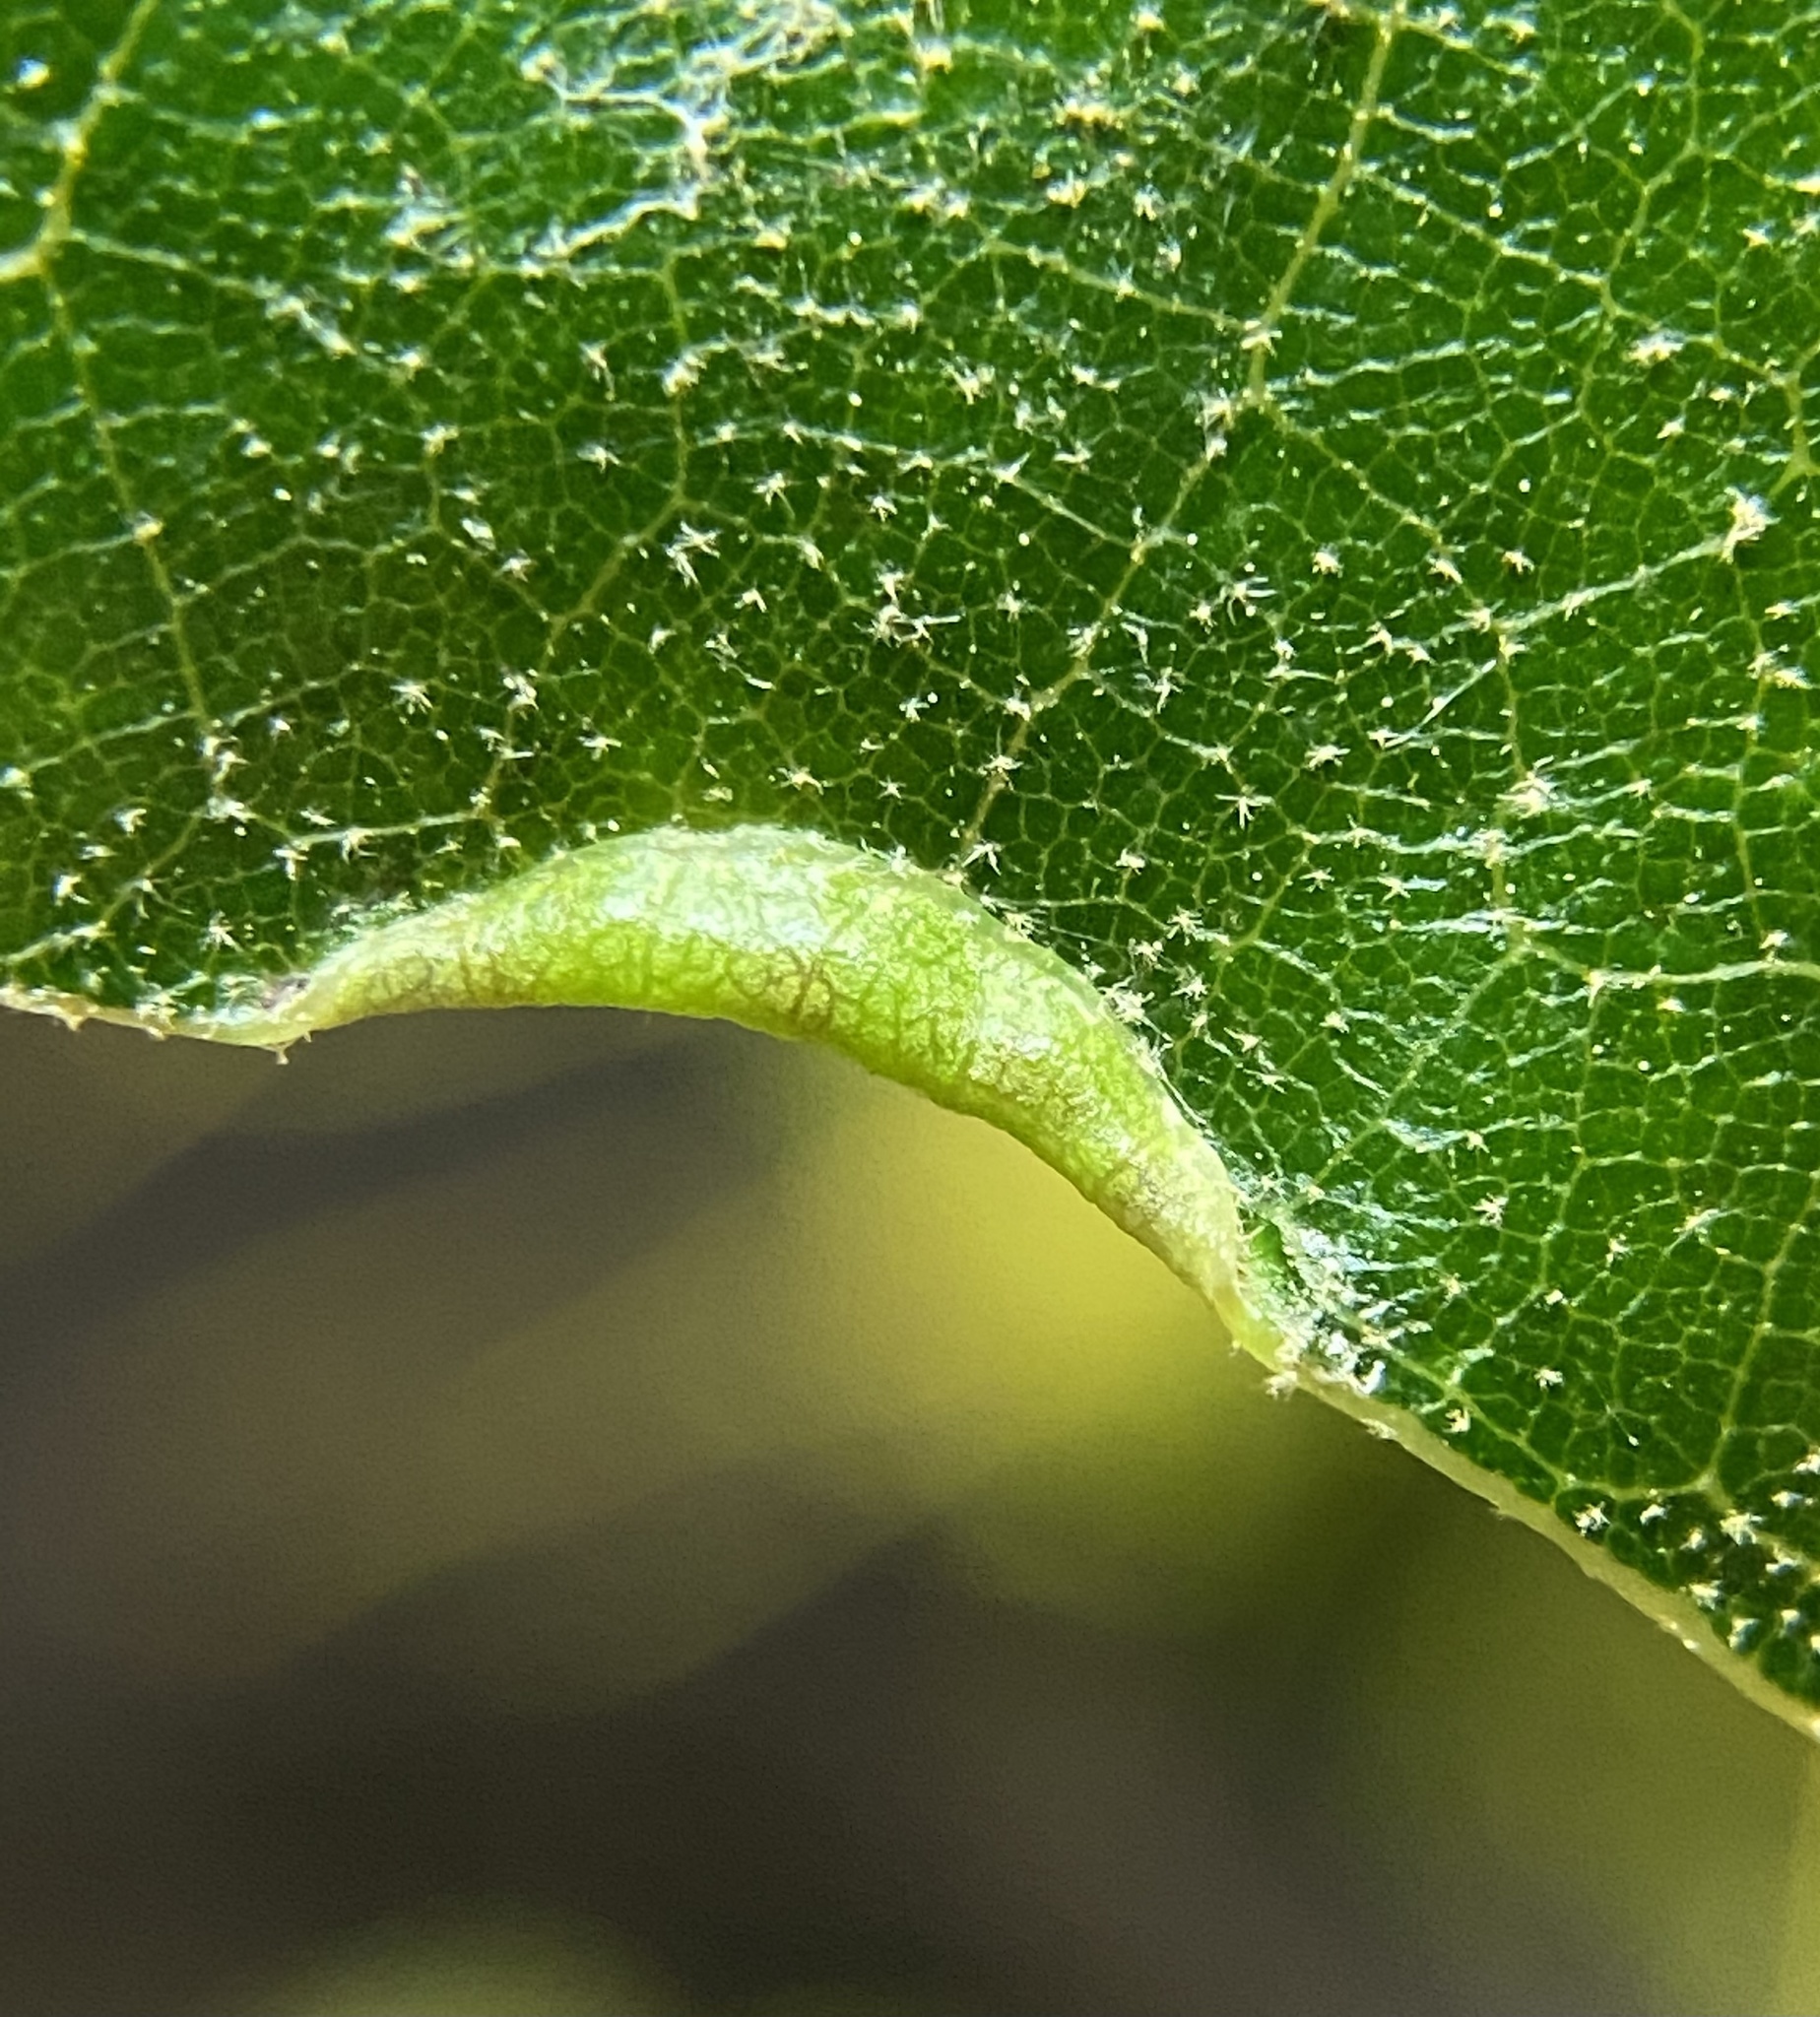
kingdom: Animalia
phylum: Arthropoda
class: Insecta
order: Diptera
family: Cecidomyiidae
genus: Macrodiplosis
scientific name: Macrodiplosis erubescens
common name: Marginal leaf fold gall midge
